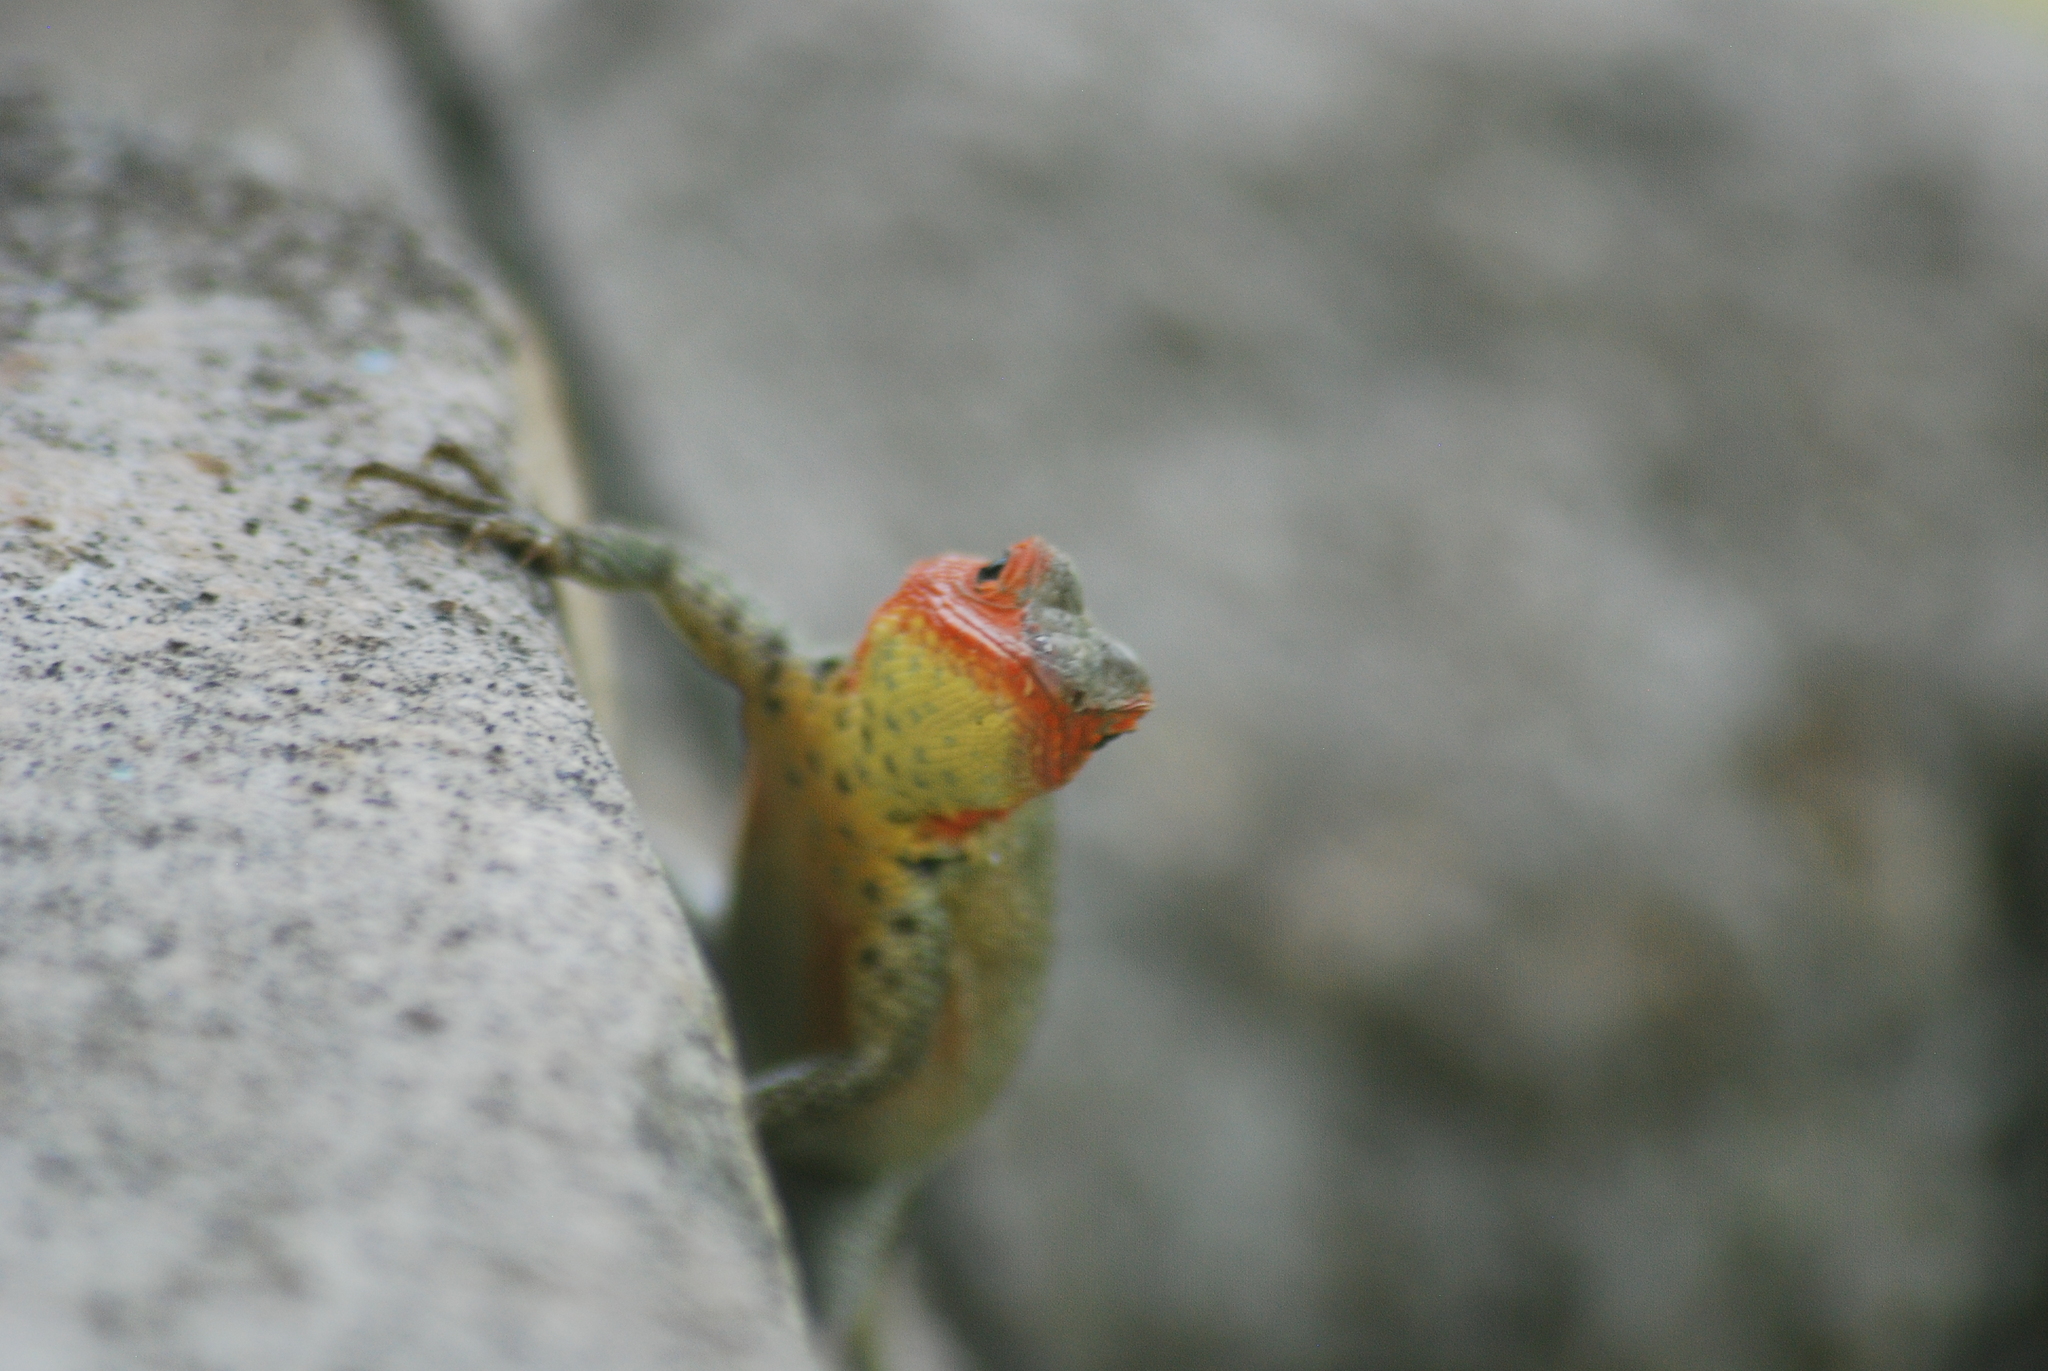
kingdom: Animalia
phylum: Chordata
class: Squamata
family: Tropiduridae
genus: Microlophus
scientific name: Microlophus indefatigabilis
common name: Galapagos lava lizard
